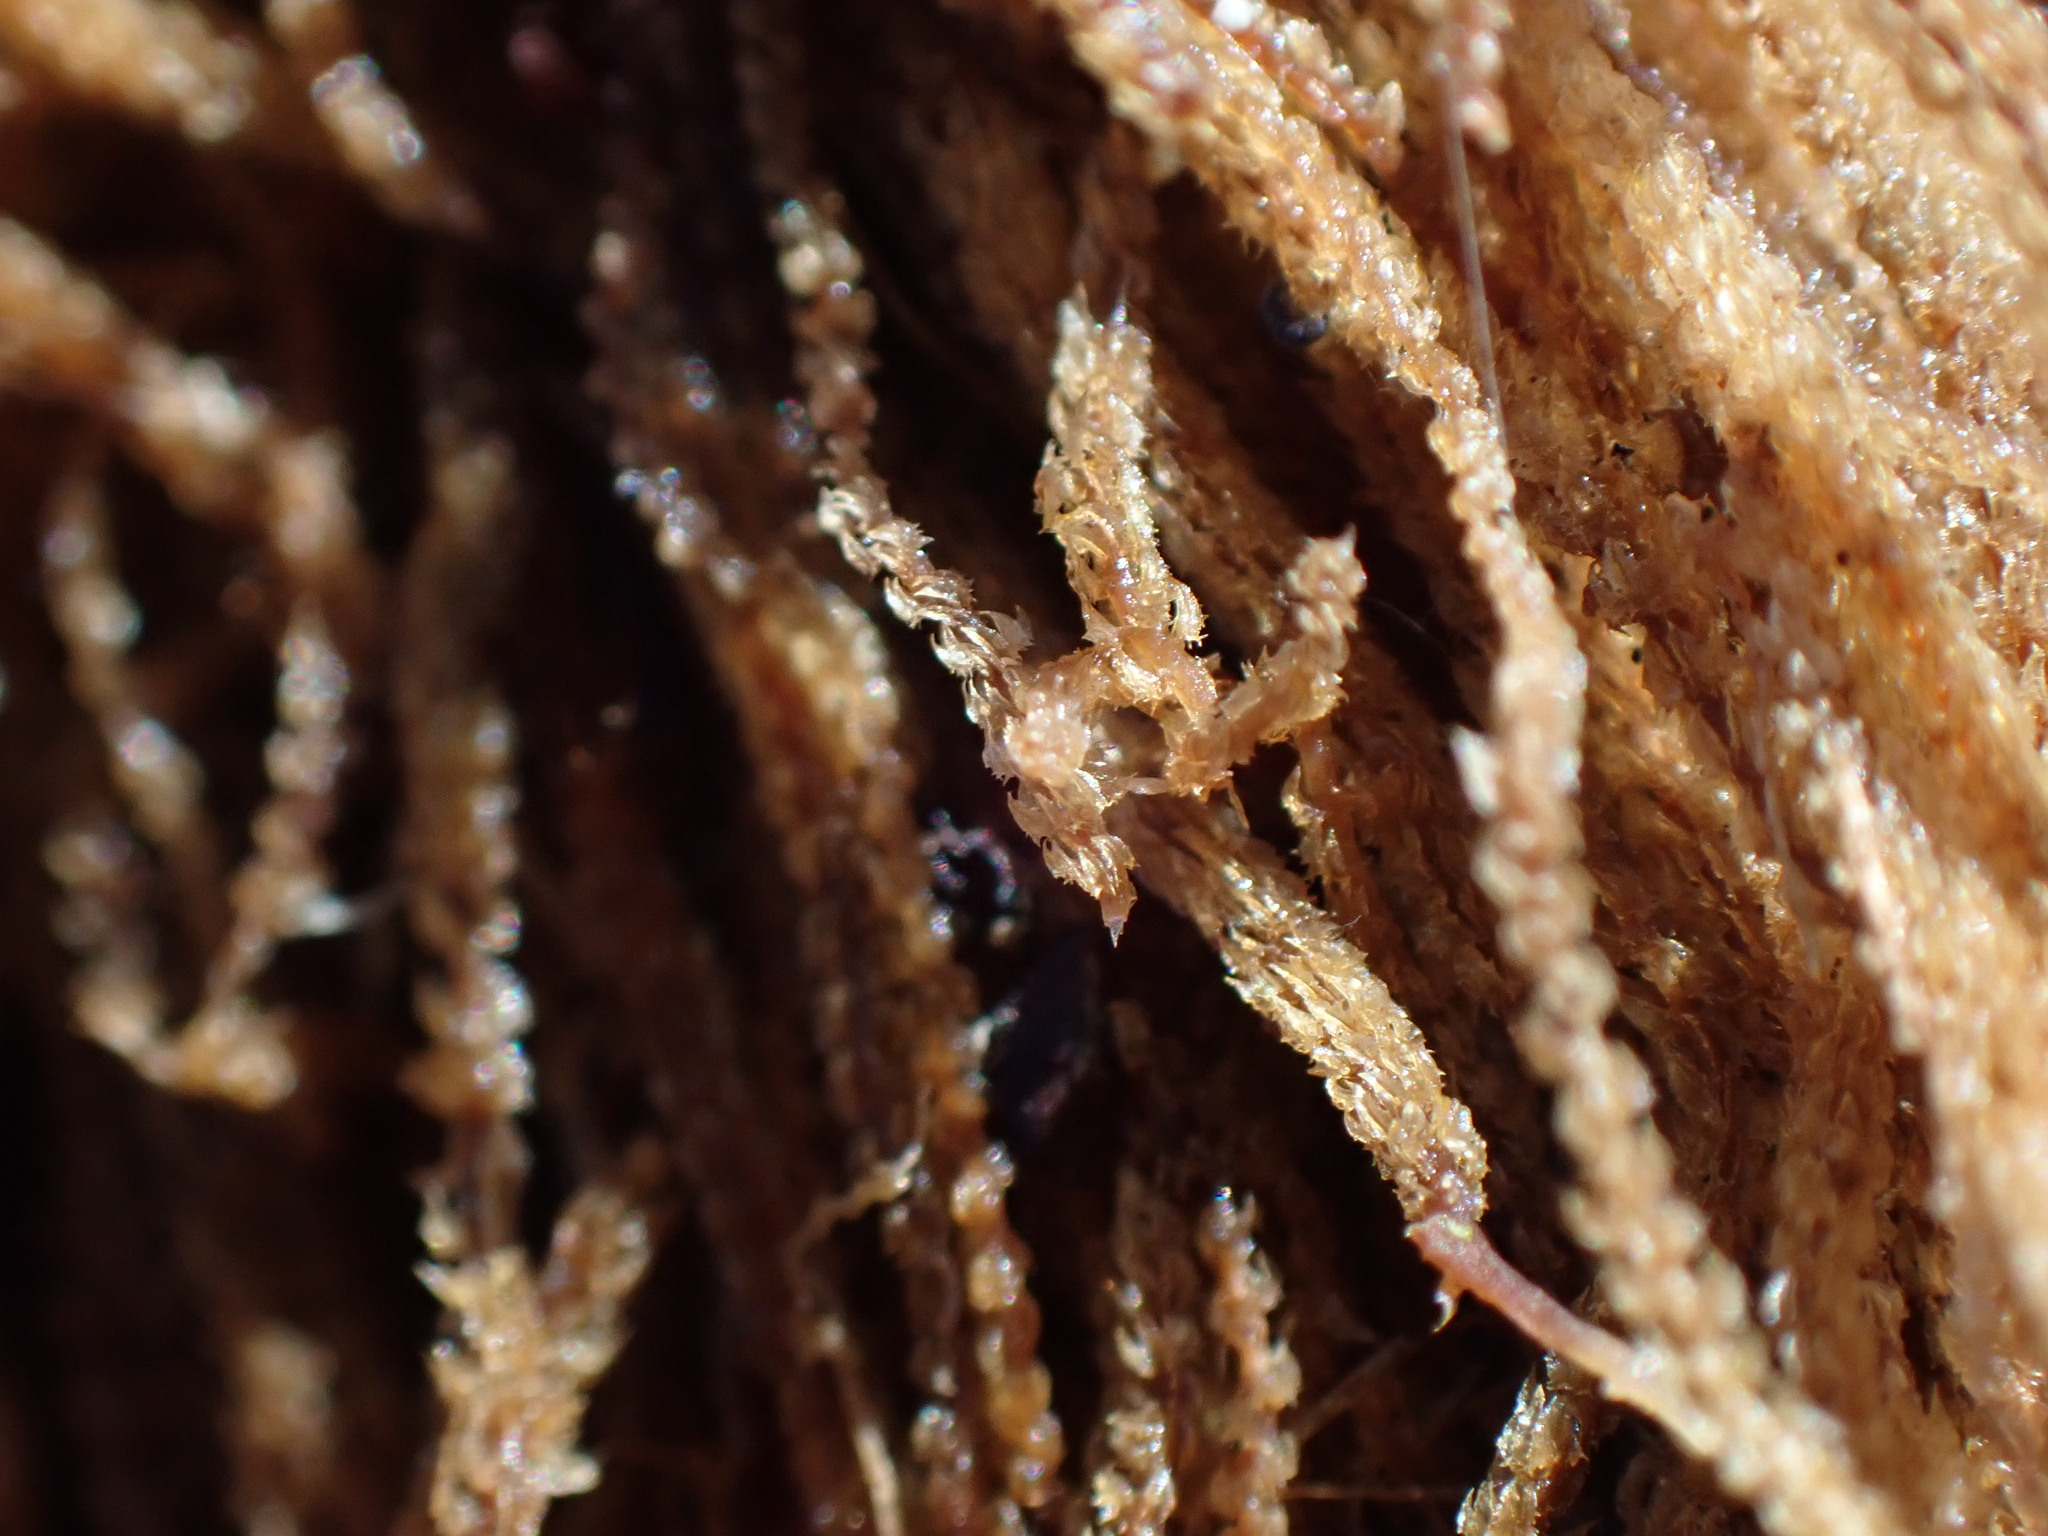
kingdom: Plantae
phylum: Marchantiophyta
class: Jungermanniopsida
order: Jungermanniales
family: Anastrophyllaceae
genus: Tetralophozia
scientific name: Tetralophozia setiformis
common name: Monster pawwort
